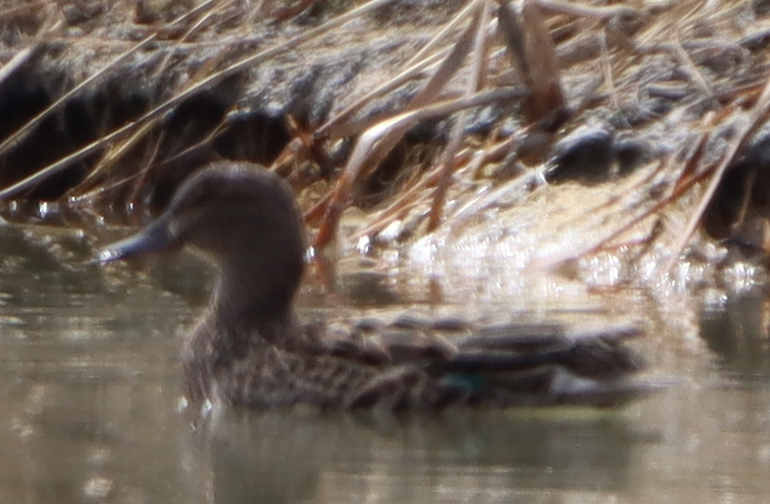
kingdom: Animalia
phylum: Chordata
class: Aves
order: Anseriformes
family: Anatidae
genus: Anas
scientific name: Anas crecca
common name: Eurasian teal
